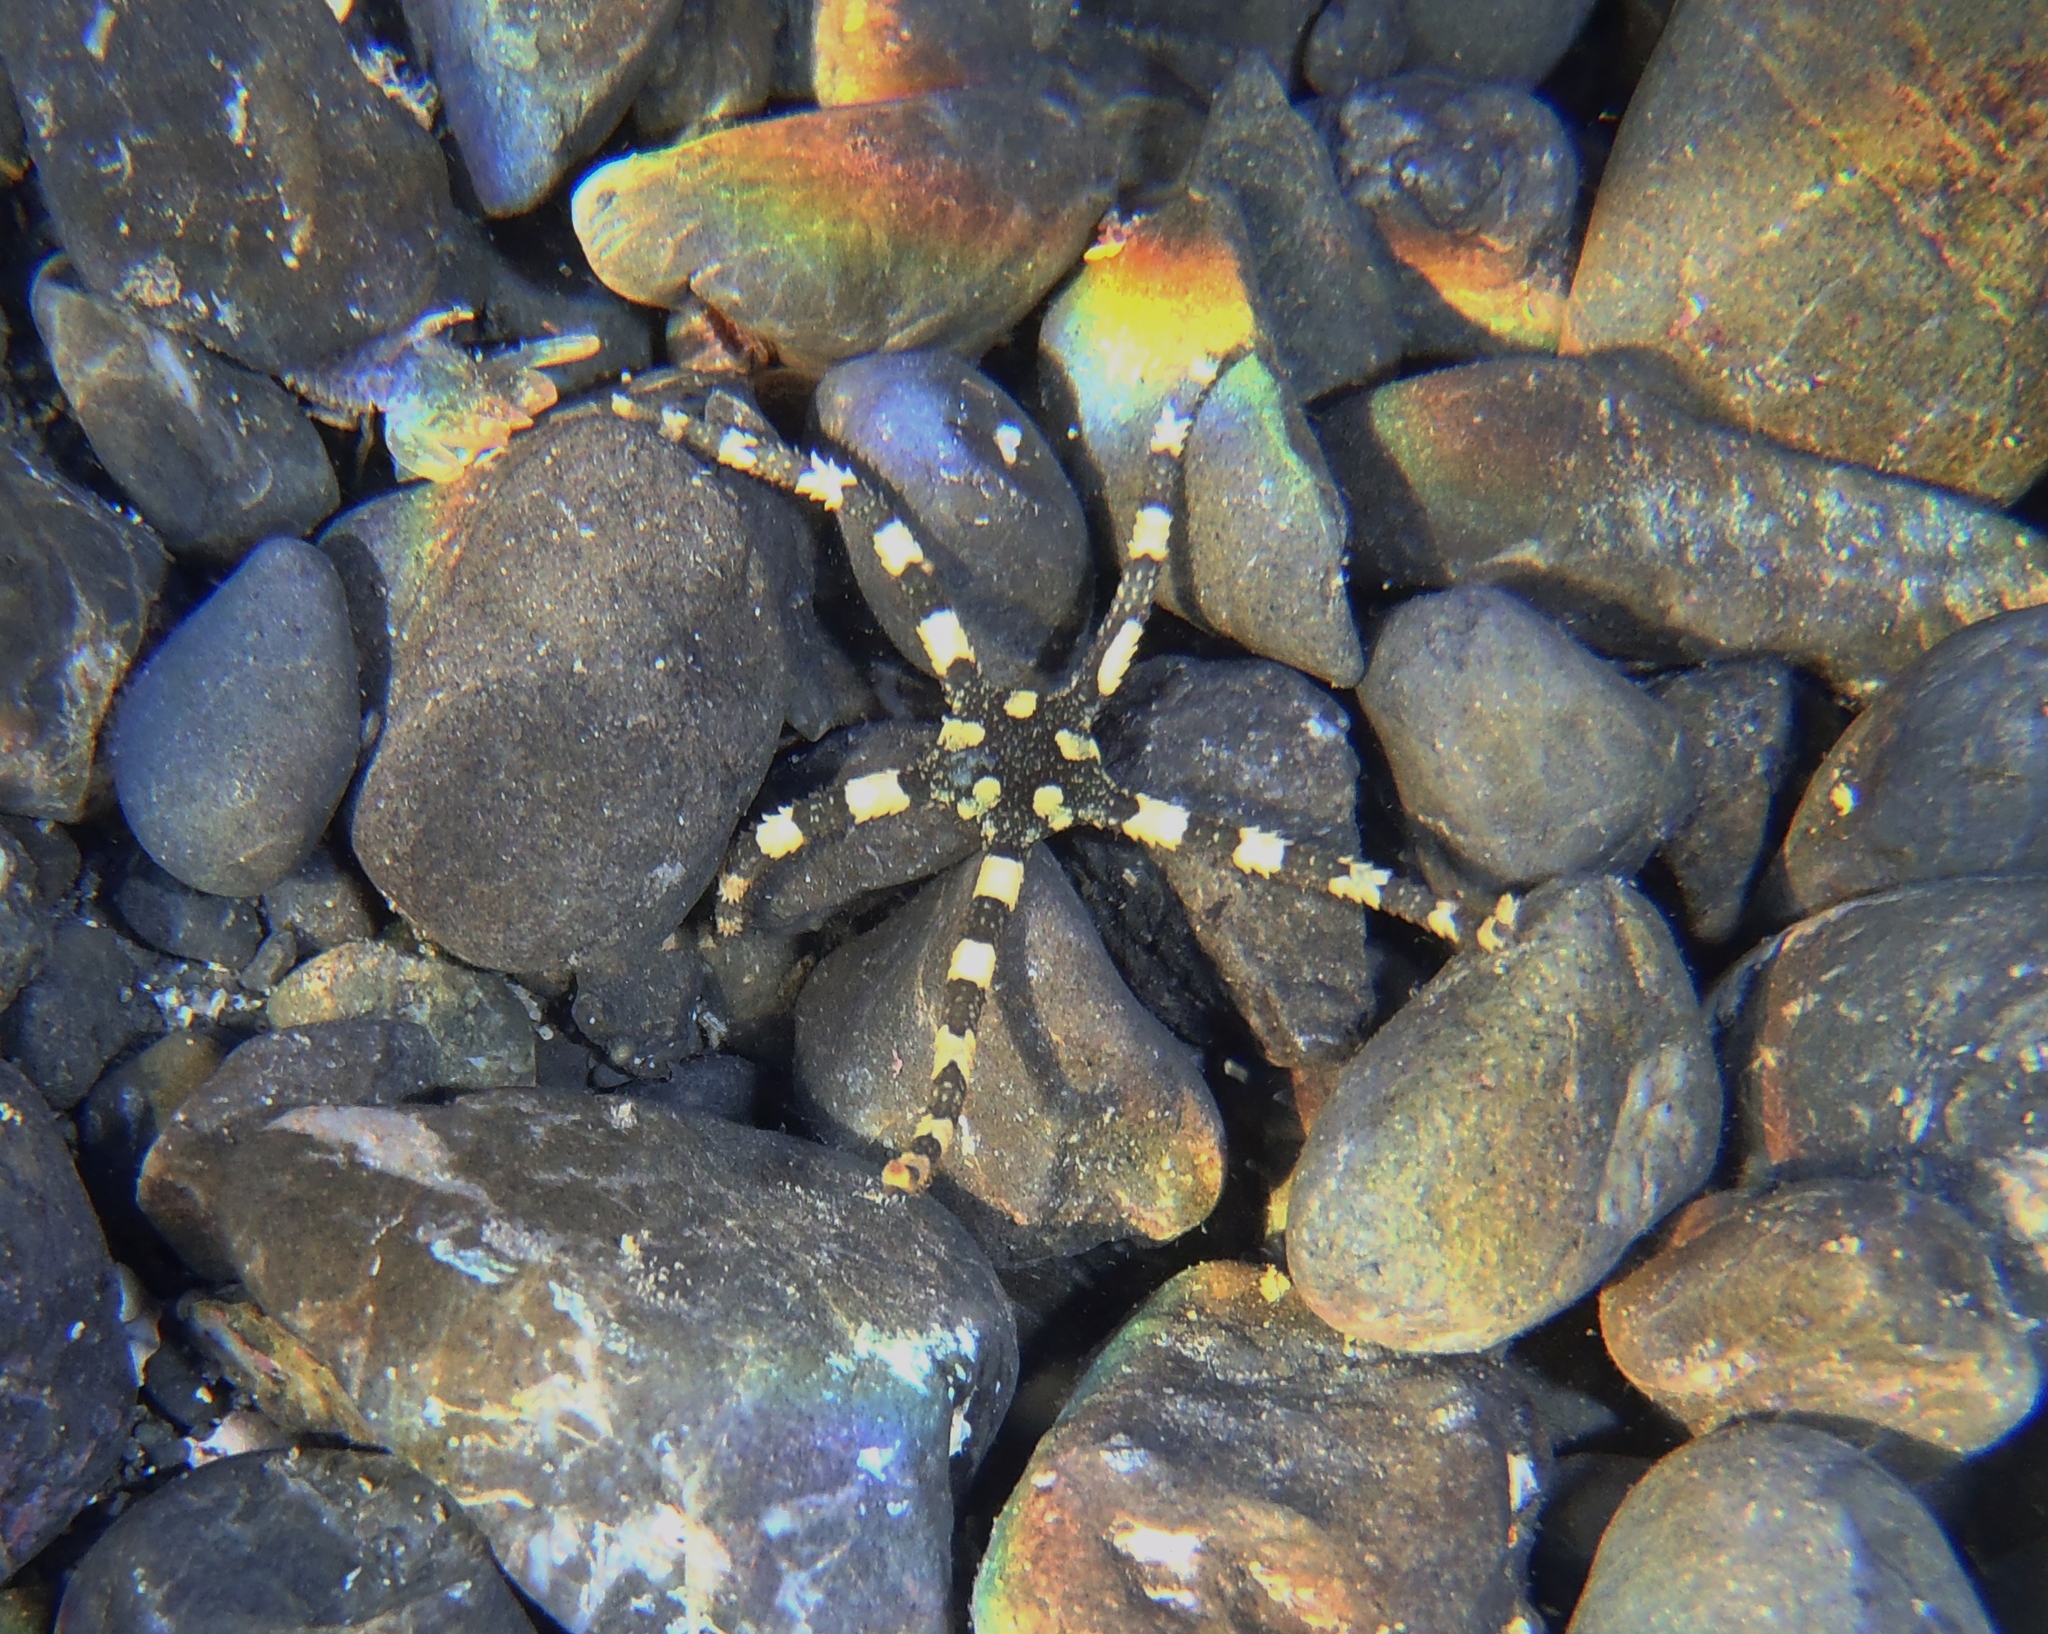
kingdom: Animalia
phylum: Echinodermata
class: Ophiuroidea
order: Ophiacanthida
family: Ophiopezidae
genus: Ophiopeza
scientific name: Ophiopeza cylindrica
